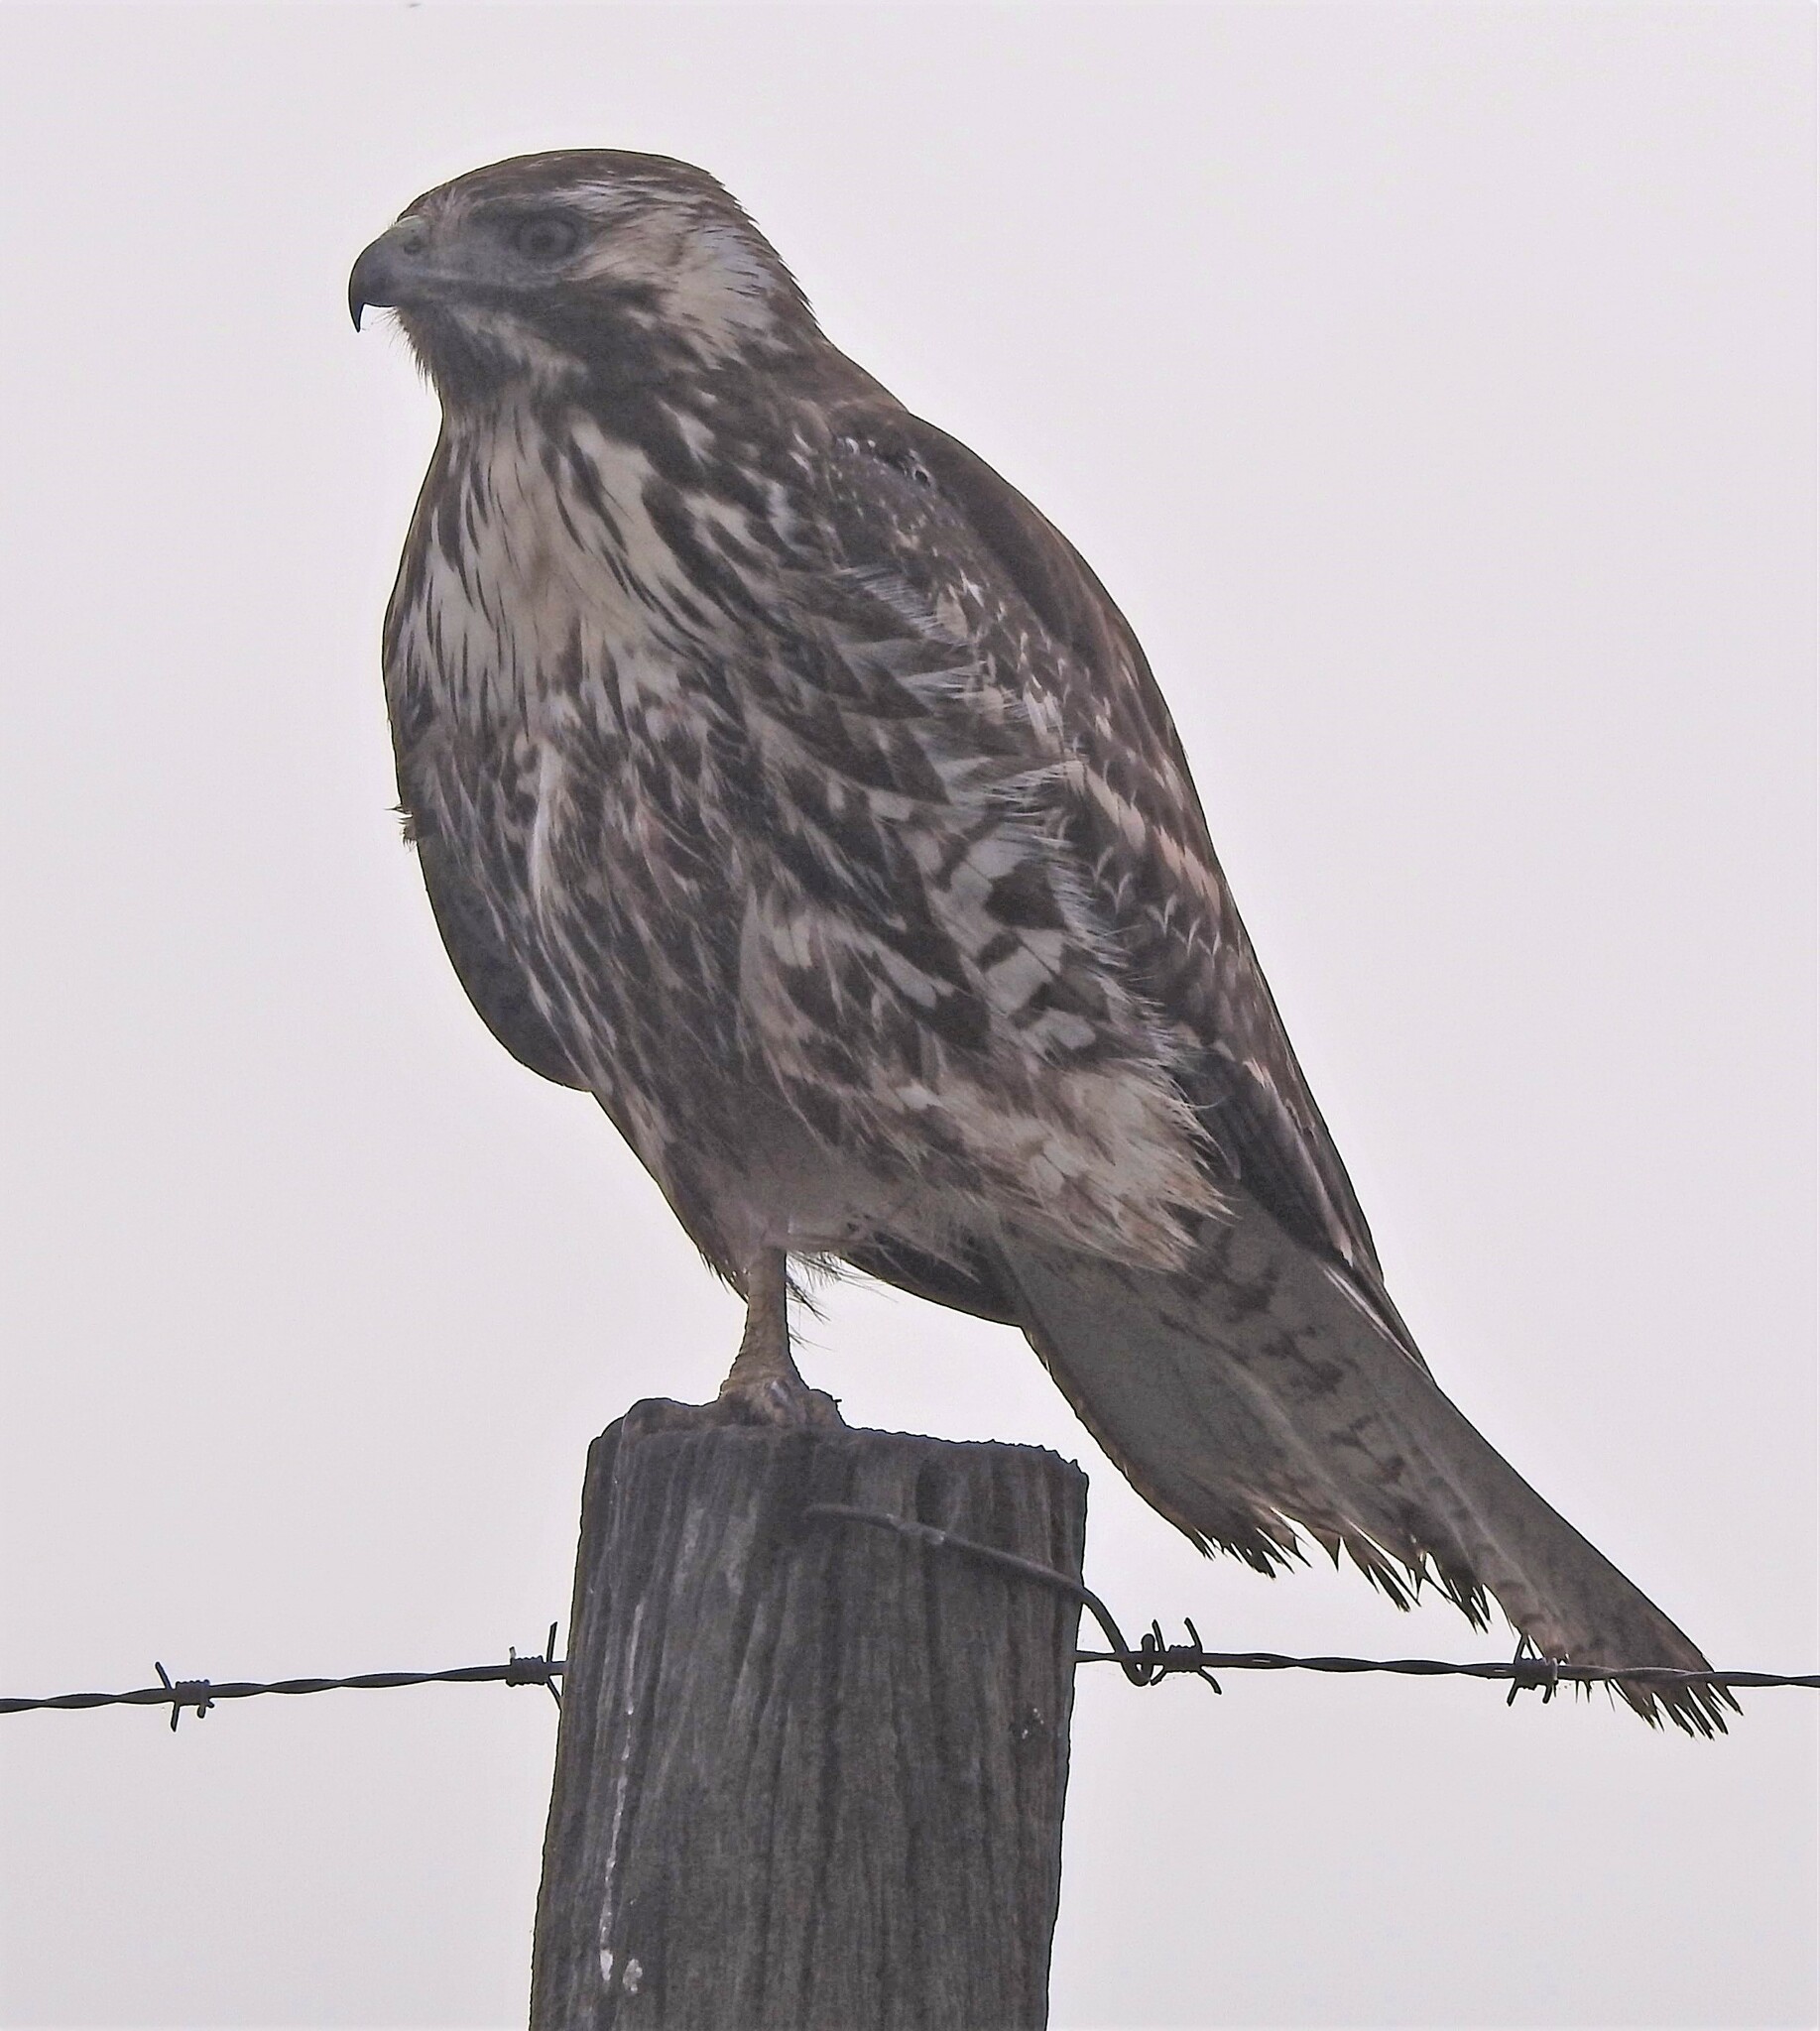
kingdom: Animalia
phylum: Chordata
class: Aves
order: Accipitriformes
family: Accipitridae
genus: Buteo
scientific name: Buteo polyosoma
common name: Variable hawk
